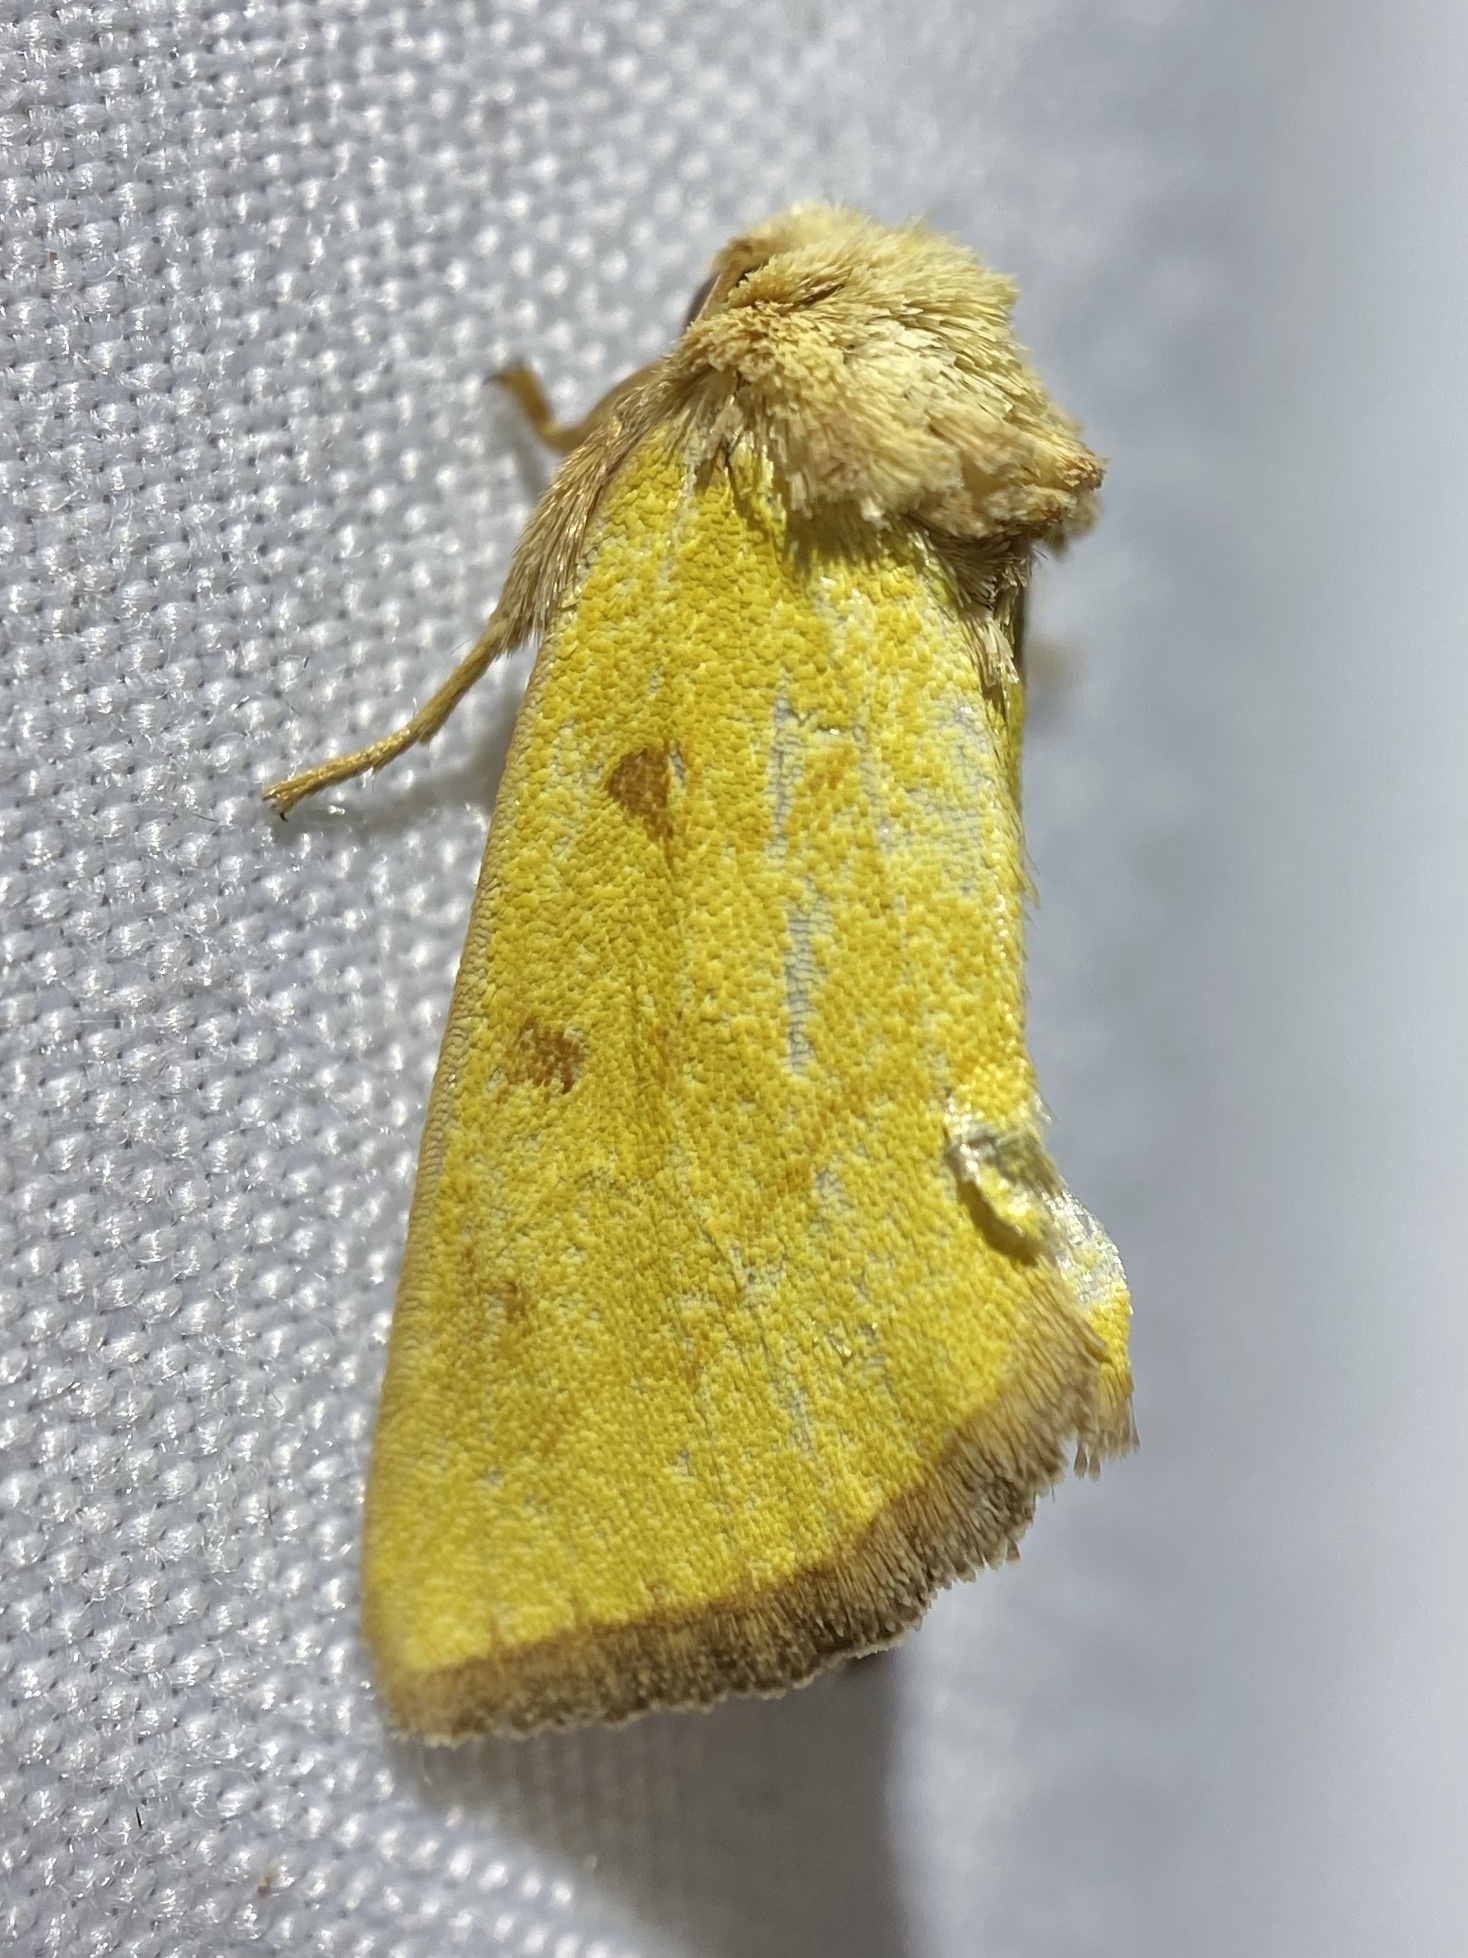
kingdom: Animalia
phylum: Arthropoda
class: Insecta
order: Lepidoptera
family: Noctuidae
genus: Nocloa
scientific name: Nocloa aliaga
